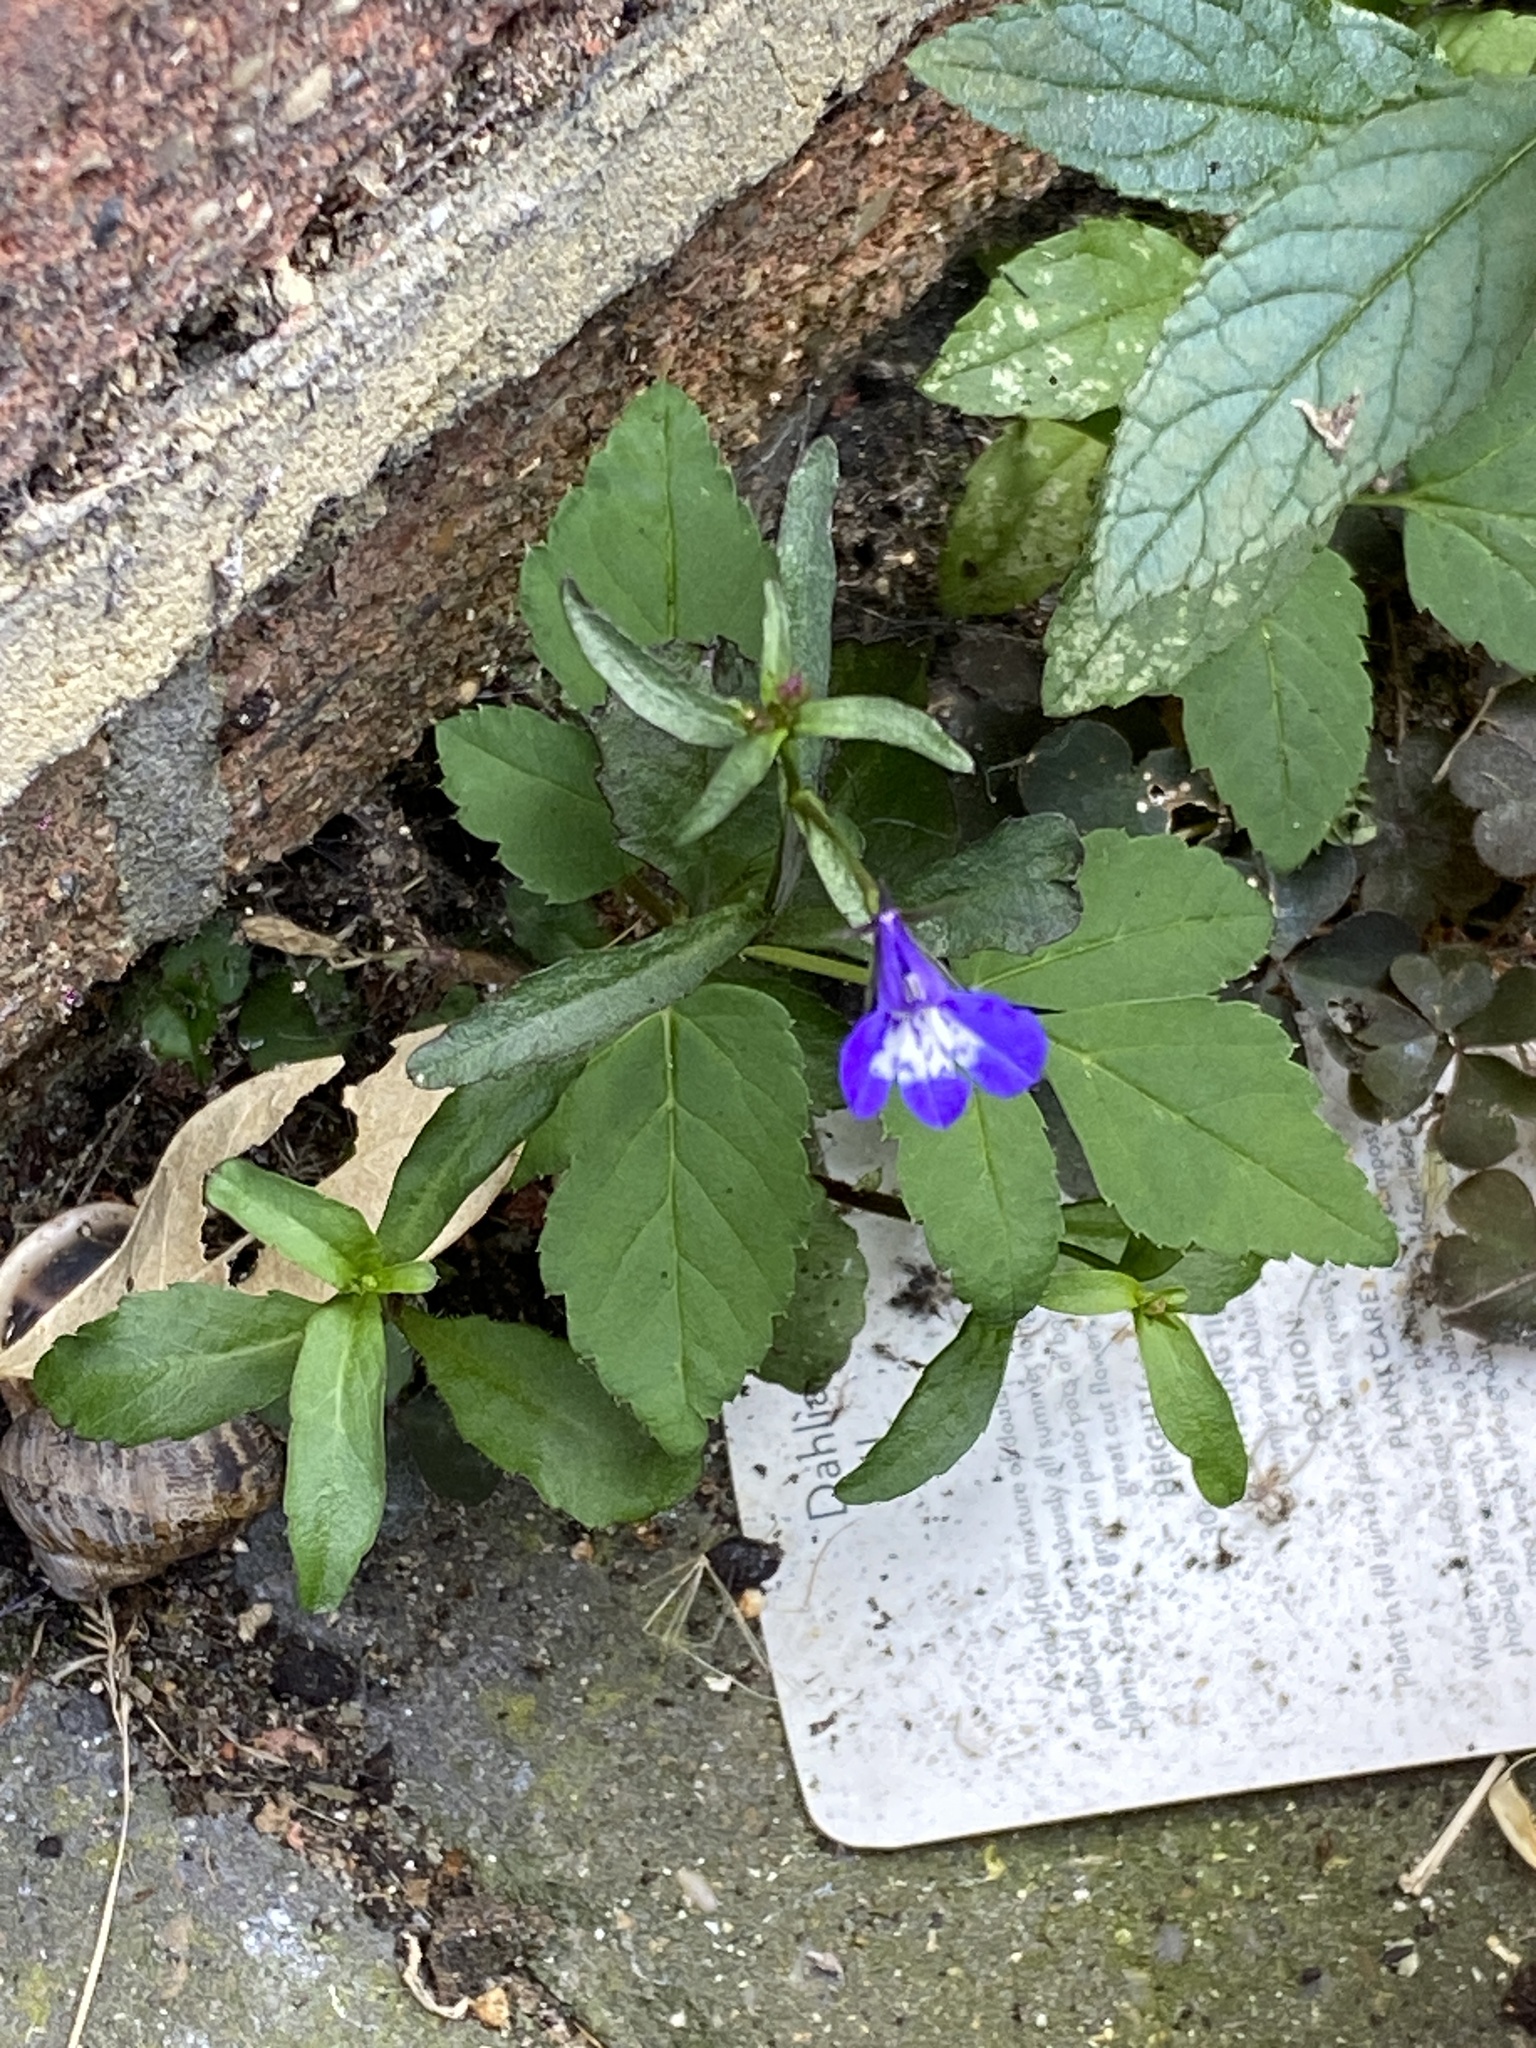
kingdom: Plantae
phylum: Tracheophyta
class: Magnoliopsida
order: Asterales
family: Campanulaceae
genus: Lobelia
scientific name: Lobelia erinus
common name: Edging lobelia
